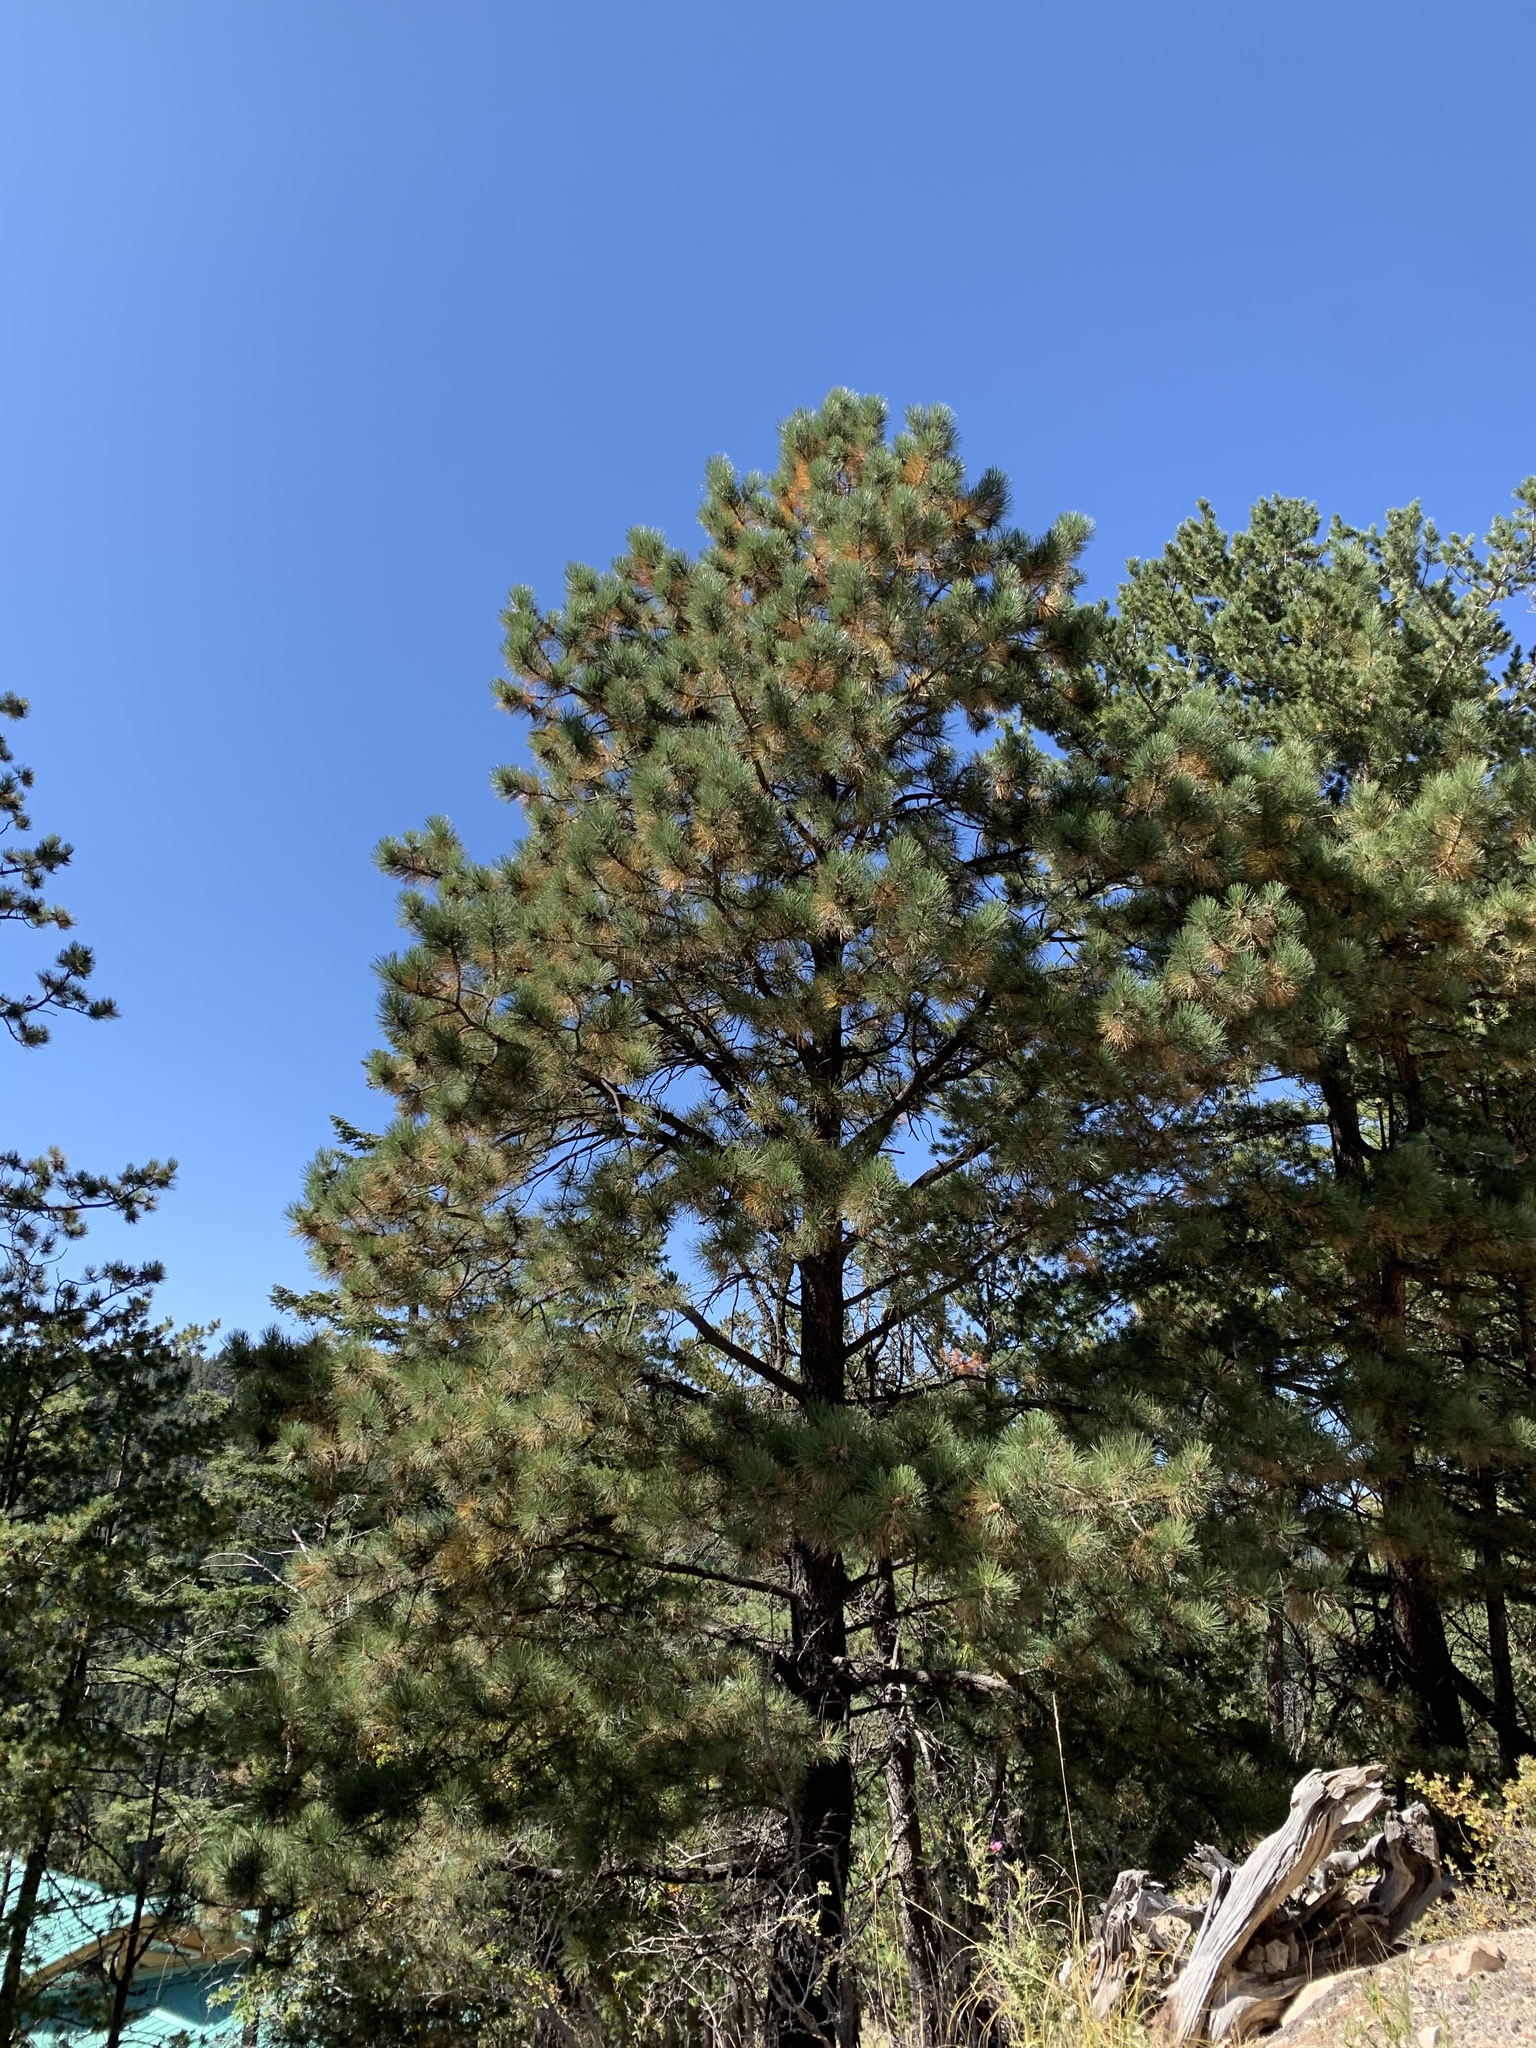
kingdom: Plantae
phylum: Tracheophyta
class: Pinopsida
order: Pinales
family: Pinaceae
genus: Pinus
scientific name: Pinus ponderosa
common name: Western yellow-pine
